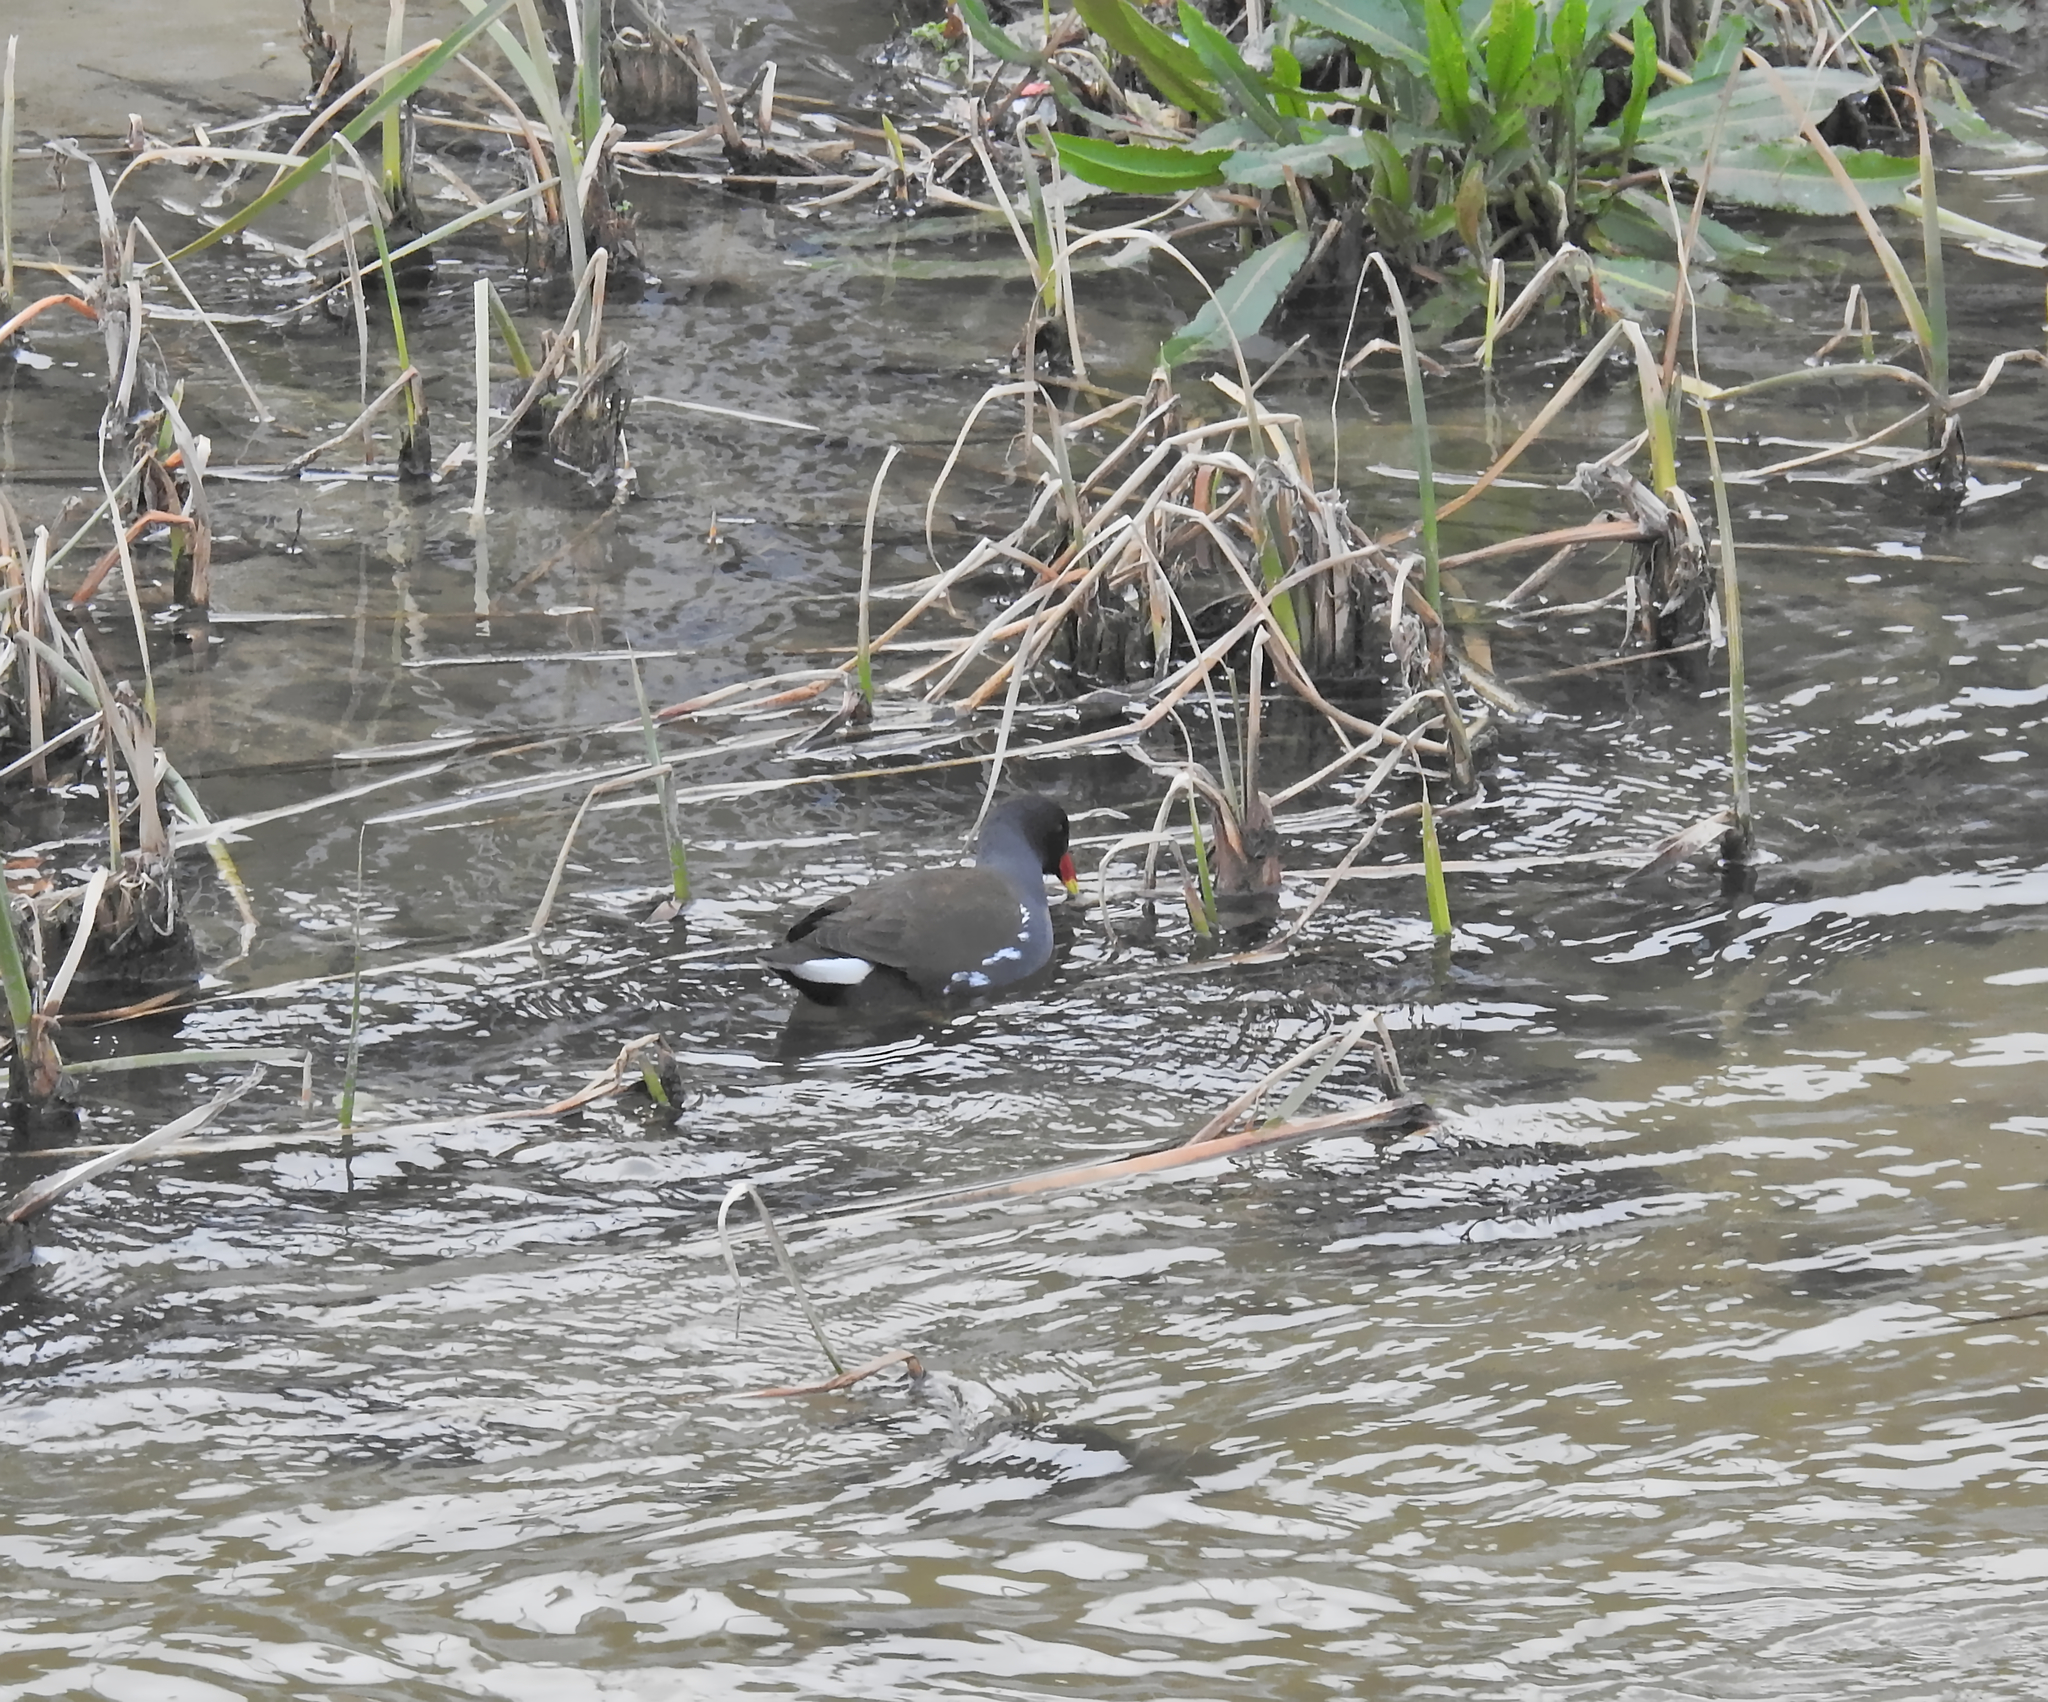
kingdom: Animalia
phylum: Chordata
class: Aves
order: Gruiformes
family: Rallidae
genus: Gallinula
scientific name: Gallinula chloropus
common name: Common moorhen
